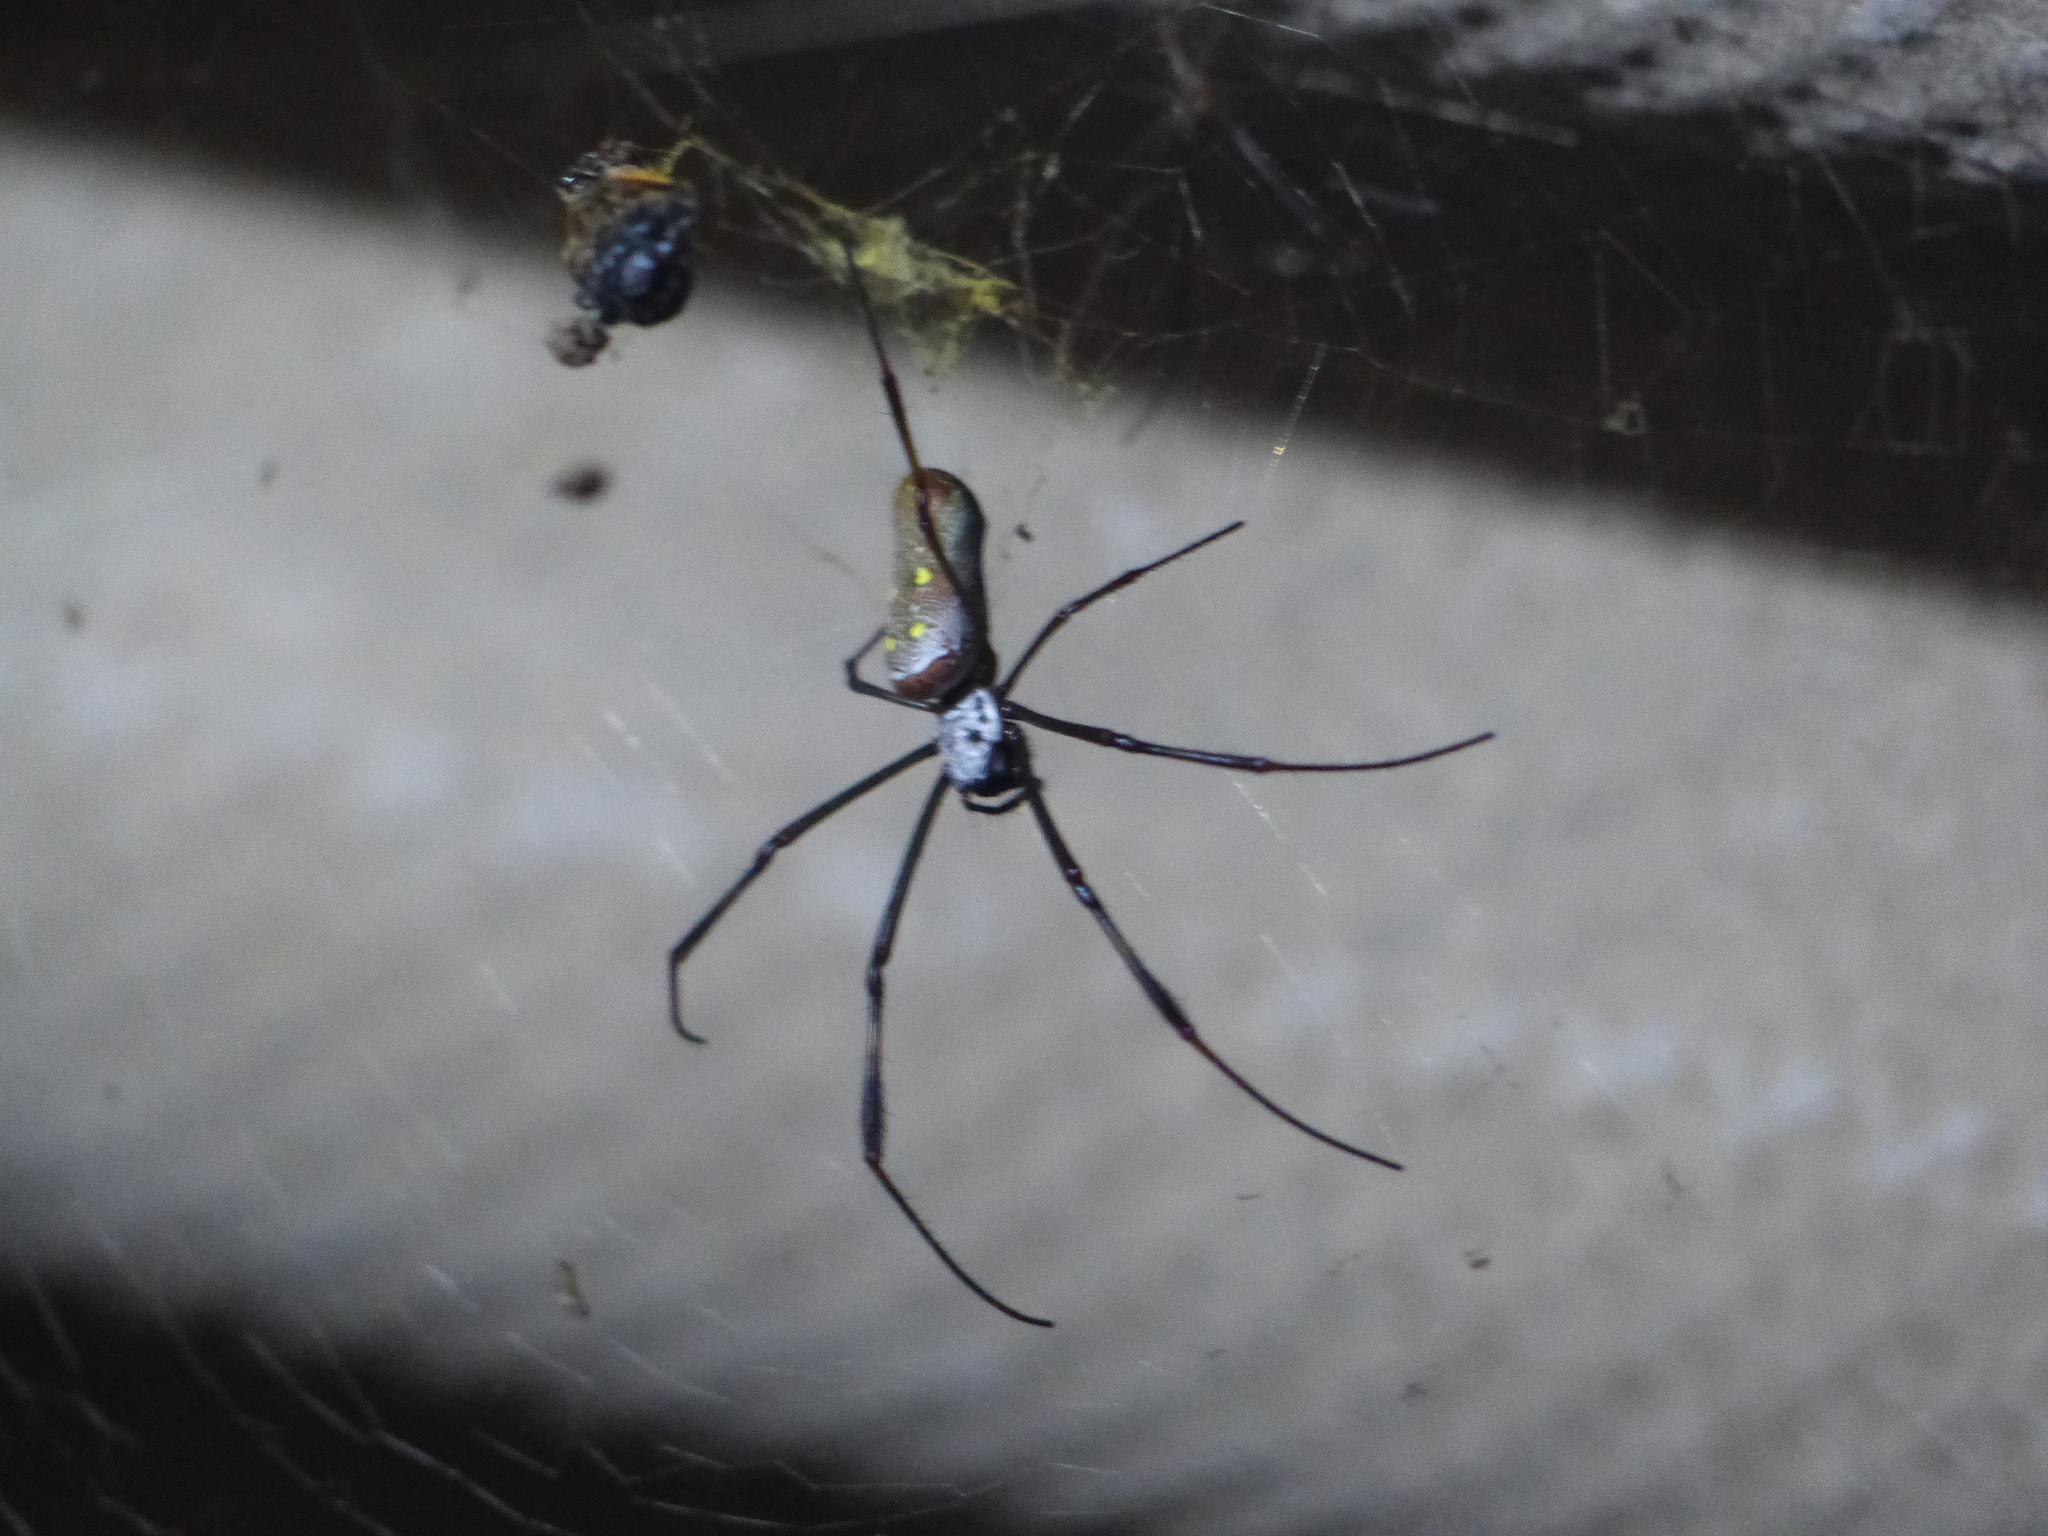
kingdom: Animalia
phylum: Arthropoda
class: Arachnida
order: Araneae
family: Araneidae
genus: Trichonephila
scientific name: Trichonephila clavipes
